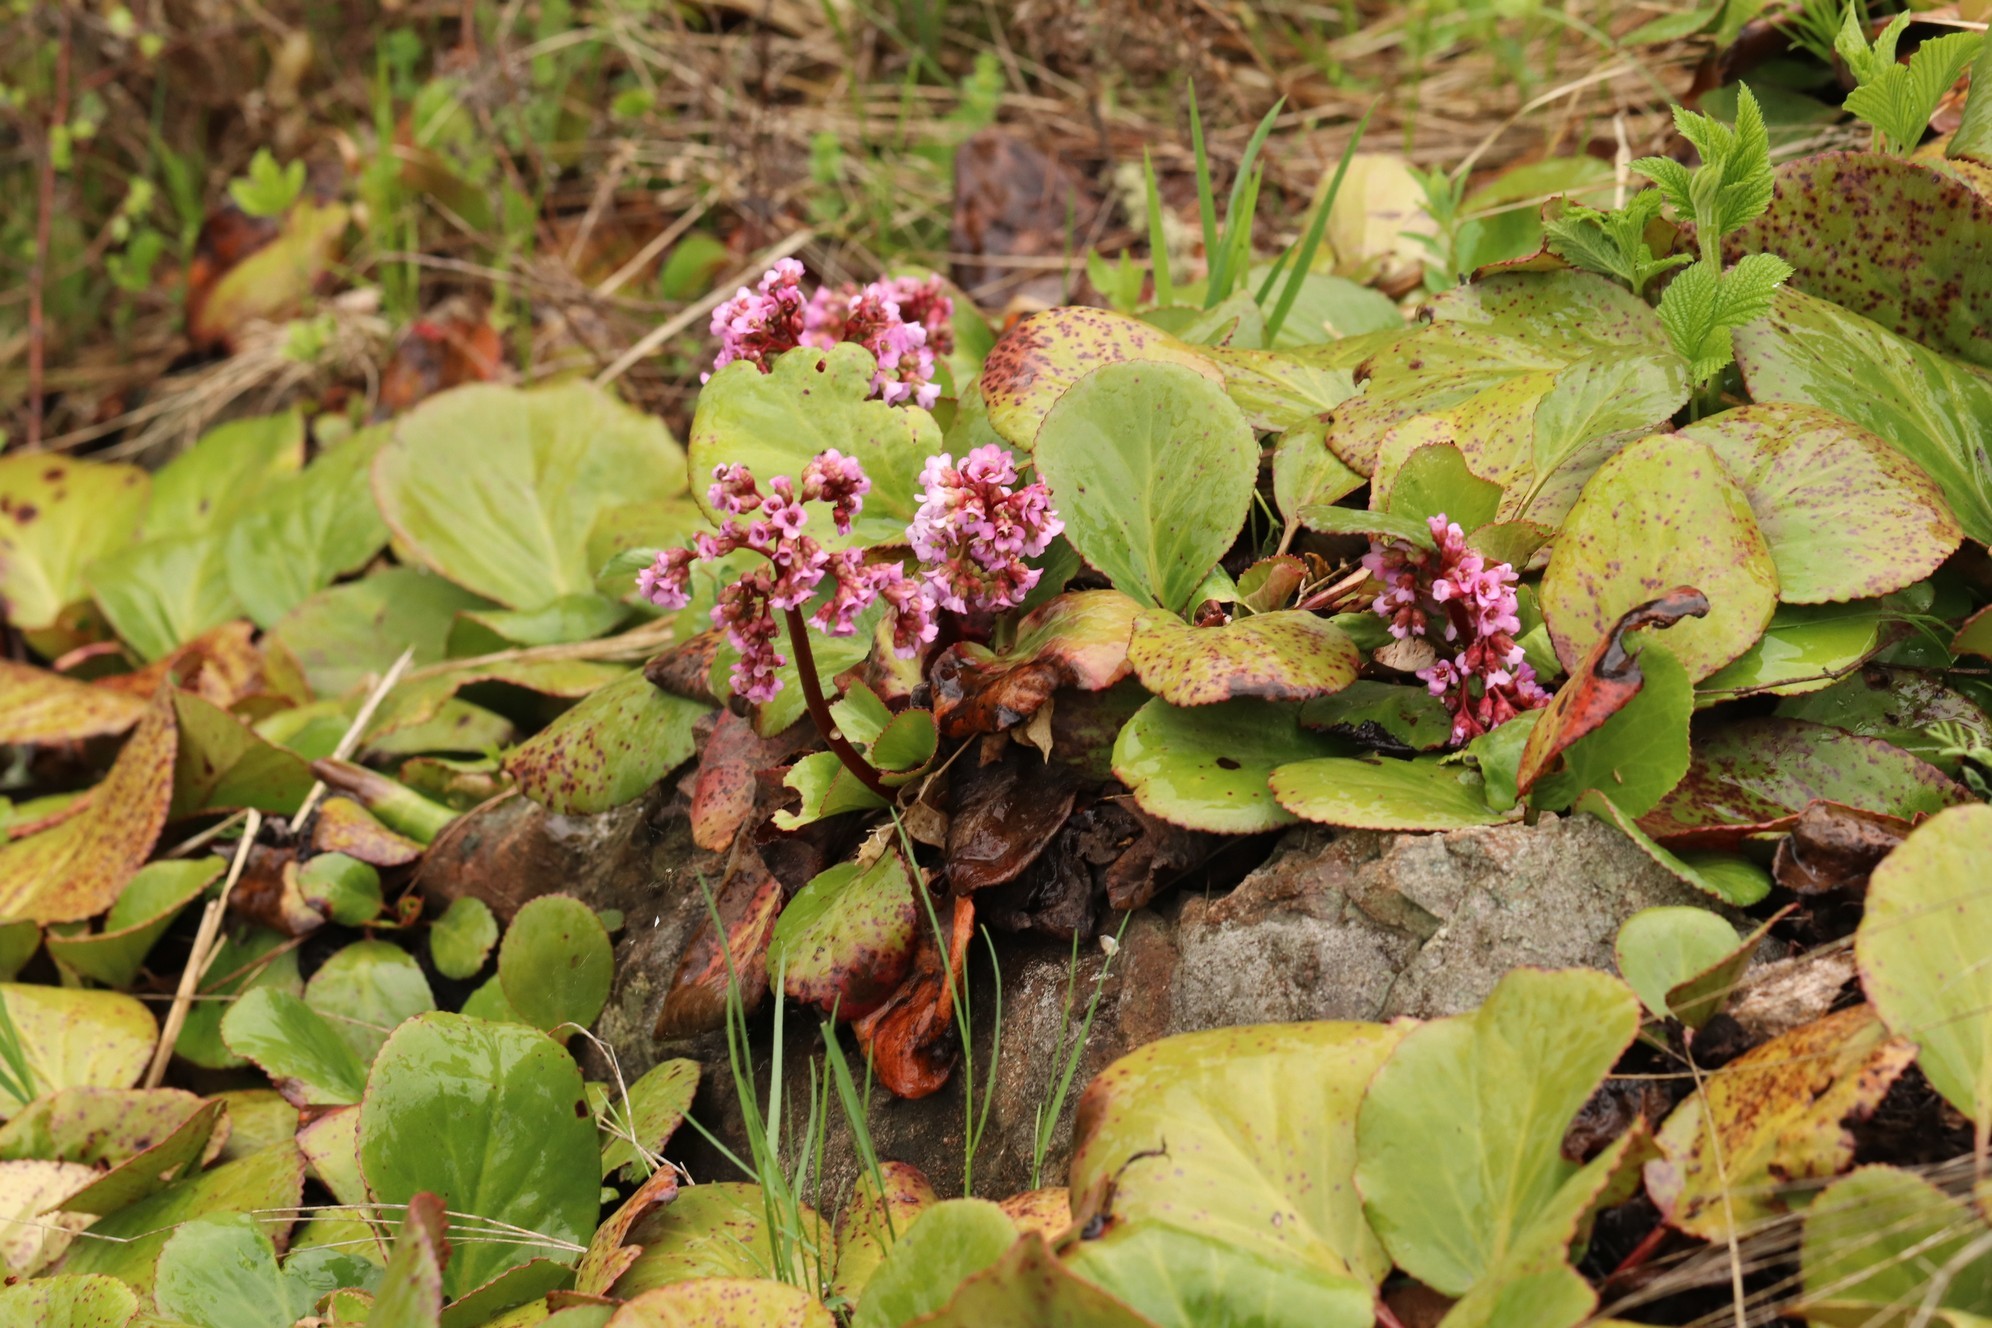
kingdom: Plantae
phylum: Tracheophyta
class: Magnoliopsida
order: Saxifragales
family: Saxifragaceae
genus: Bergenia
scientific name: Bergenia crassifolia
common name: Elephant-ears
